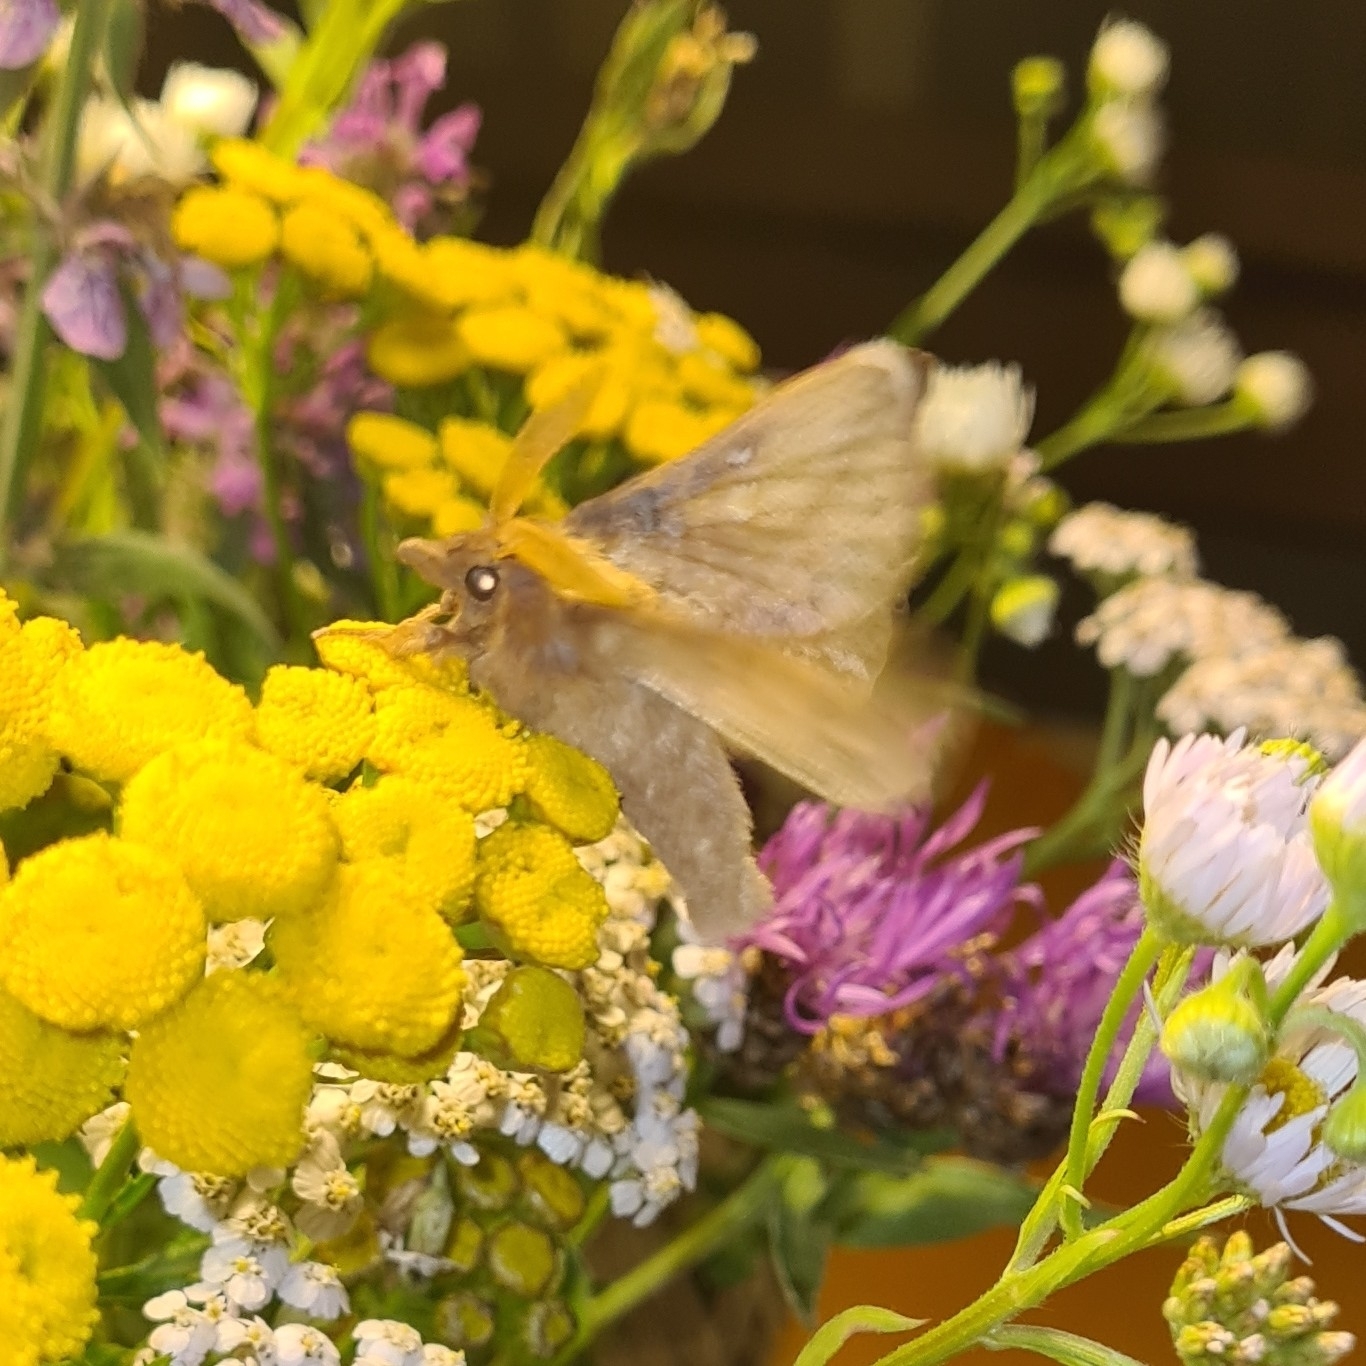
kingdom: Animalia
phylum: Arthropoda
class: Insecta
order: Lepidoptera
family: Lasiocampidae
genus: Euthrix
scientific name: Euthrix potatoria
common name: Drinker
